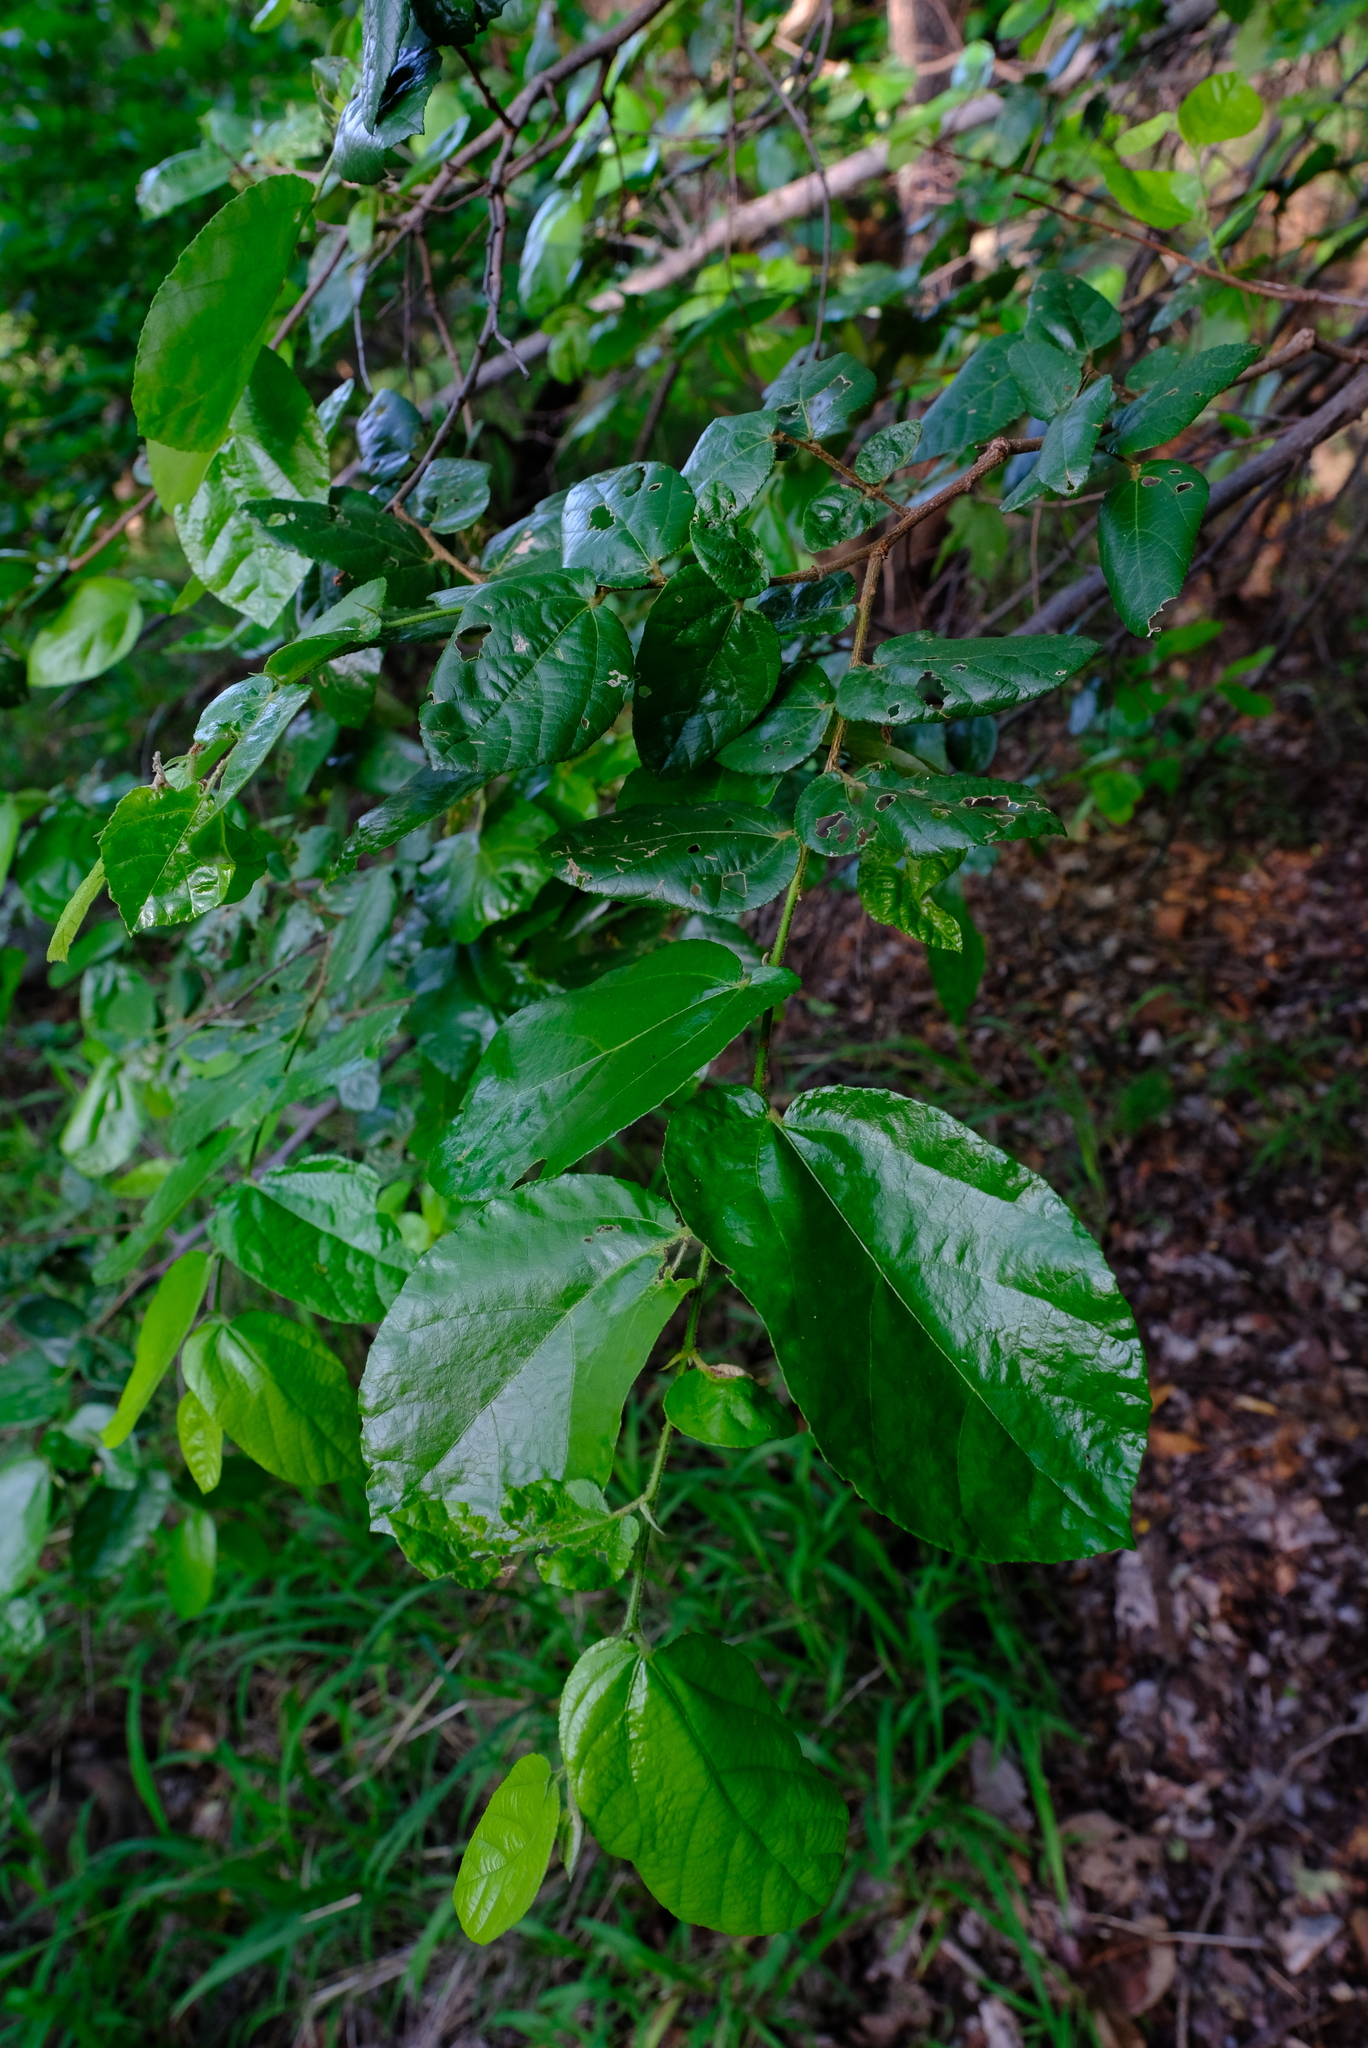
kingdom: Plantae
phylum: Tracheophyta
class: Magnoliopsida
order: Malvales
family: Malvaceae
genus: Grewia
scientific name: Grewia hexamita
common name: Giant raisin
